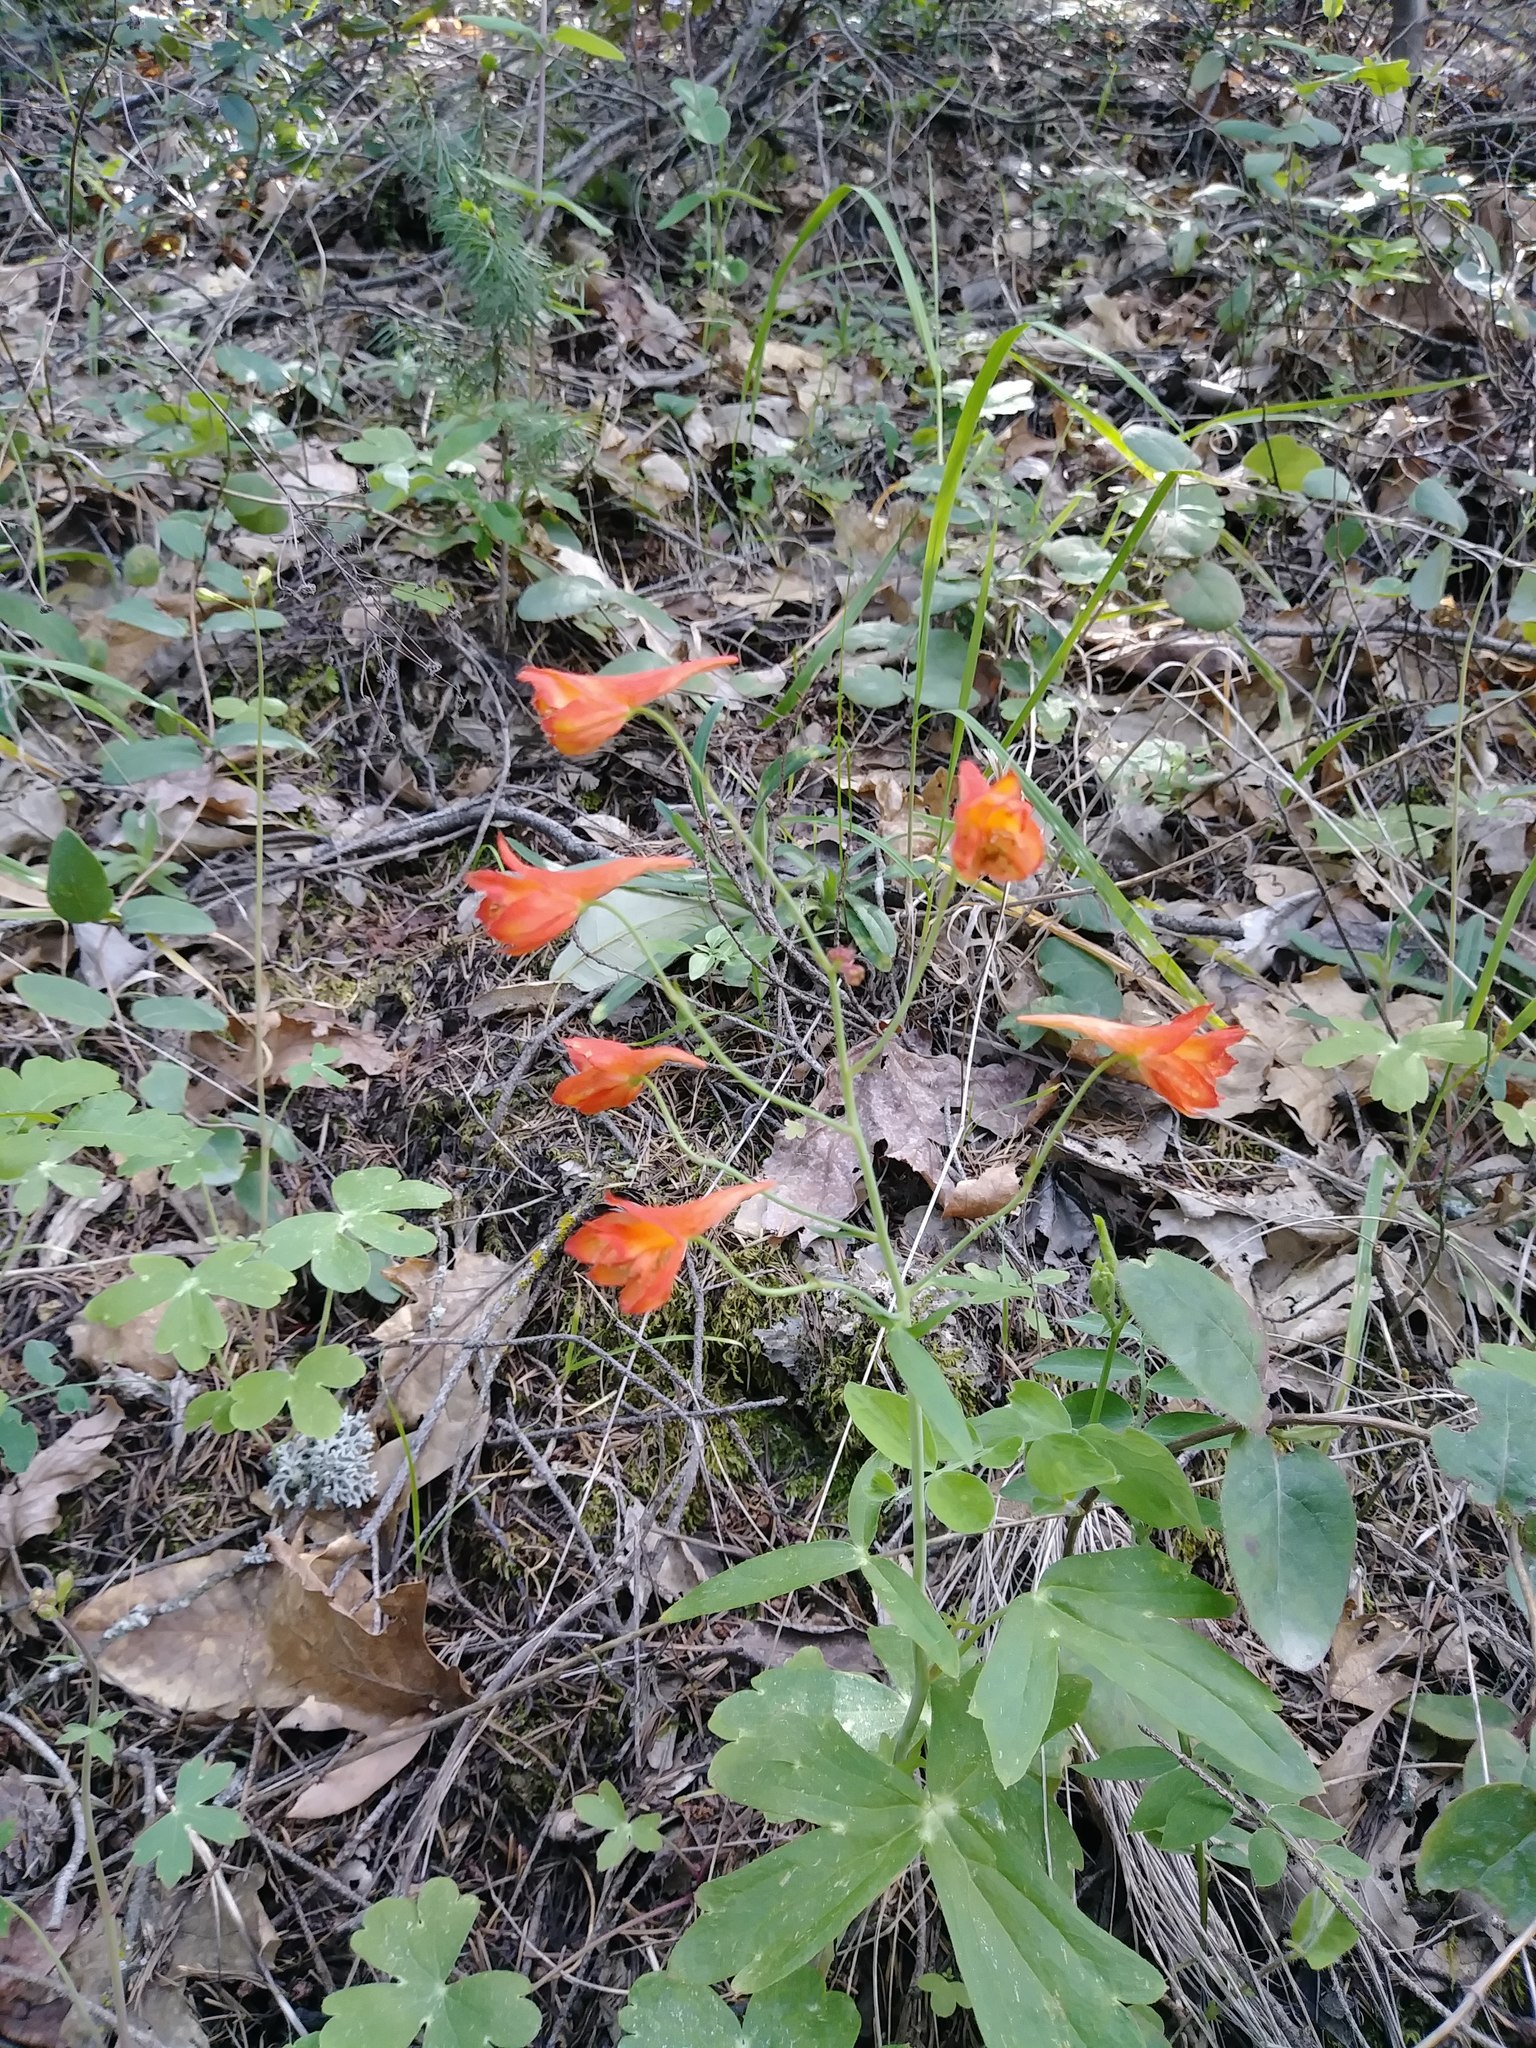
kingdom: Plantae
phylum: Tracheophyta
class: Magnoliopsida
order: Ranunculales
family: Ranunculaceae
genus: Delphinium
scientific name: Delphinium nudicaule
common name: Red larkspur
